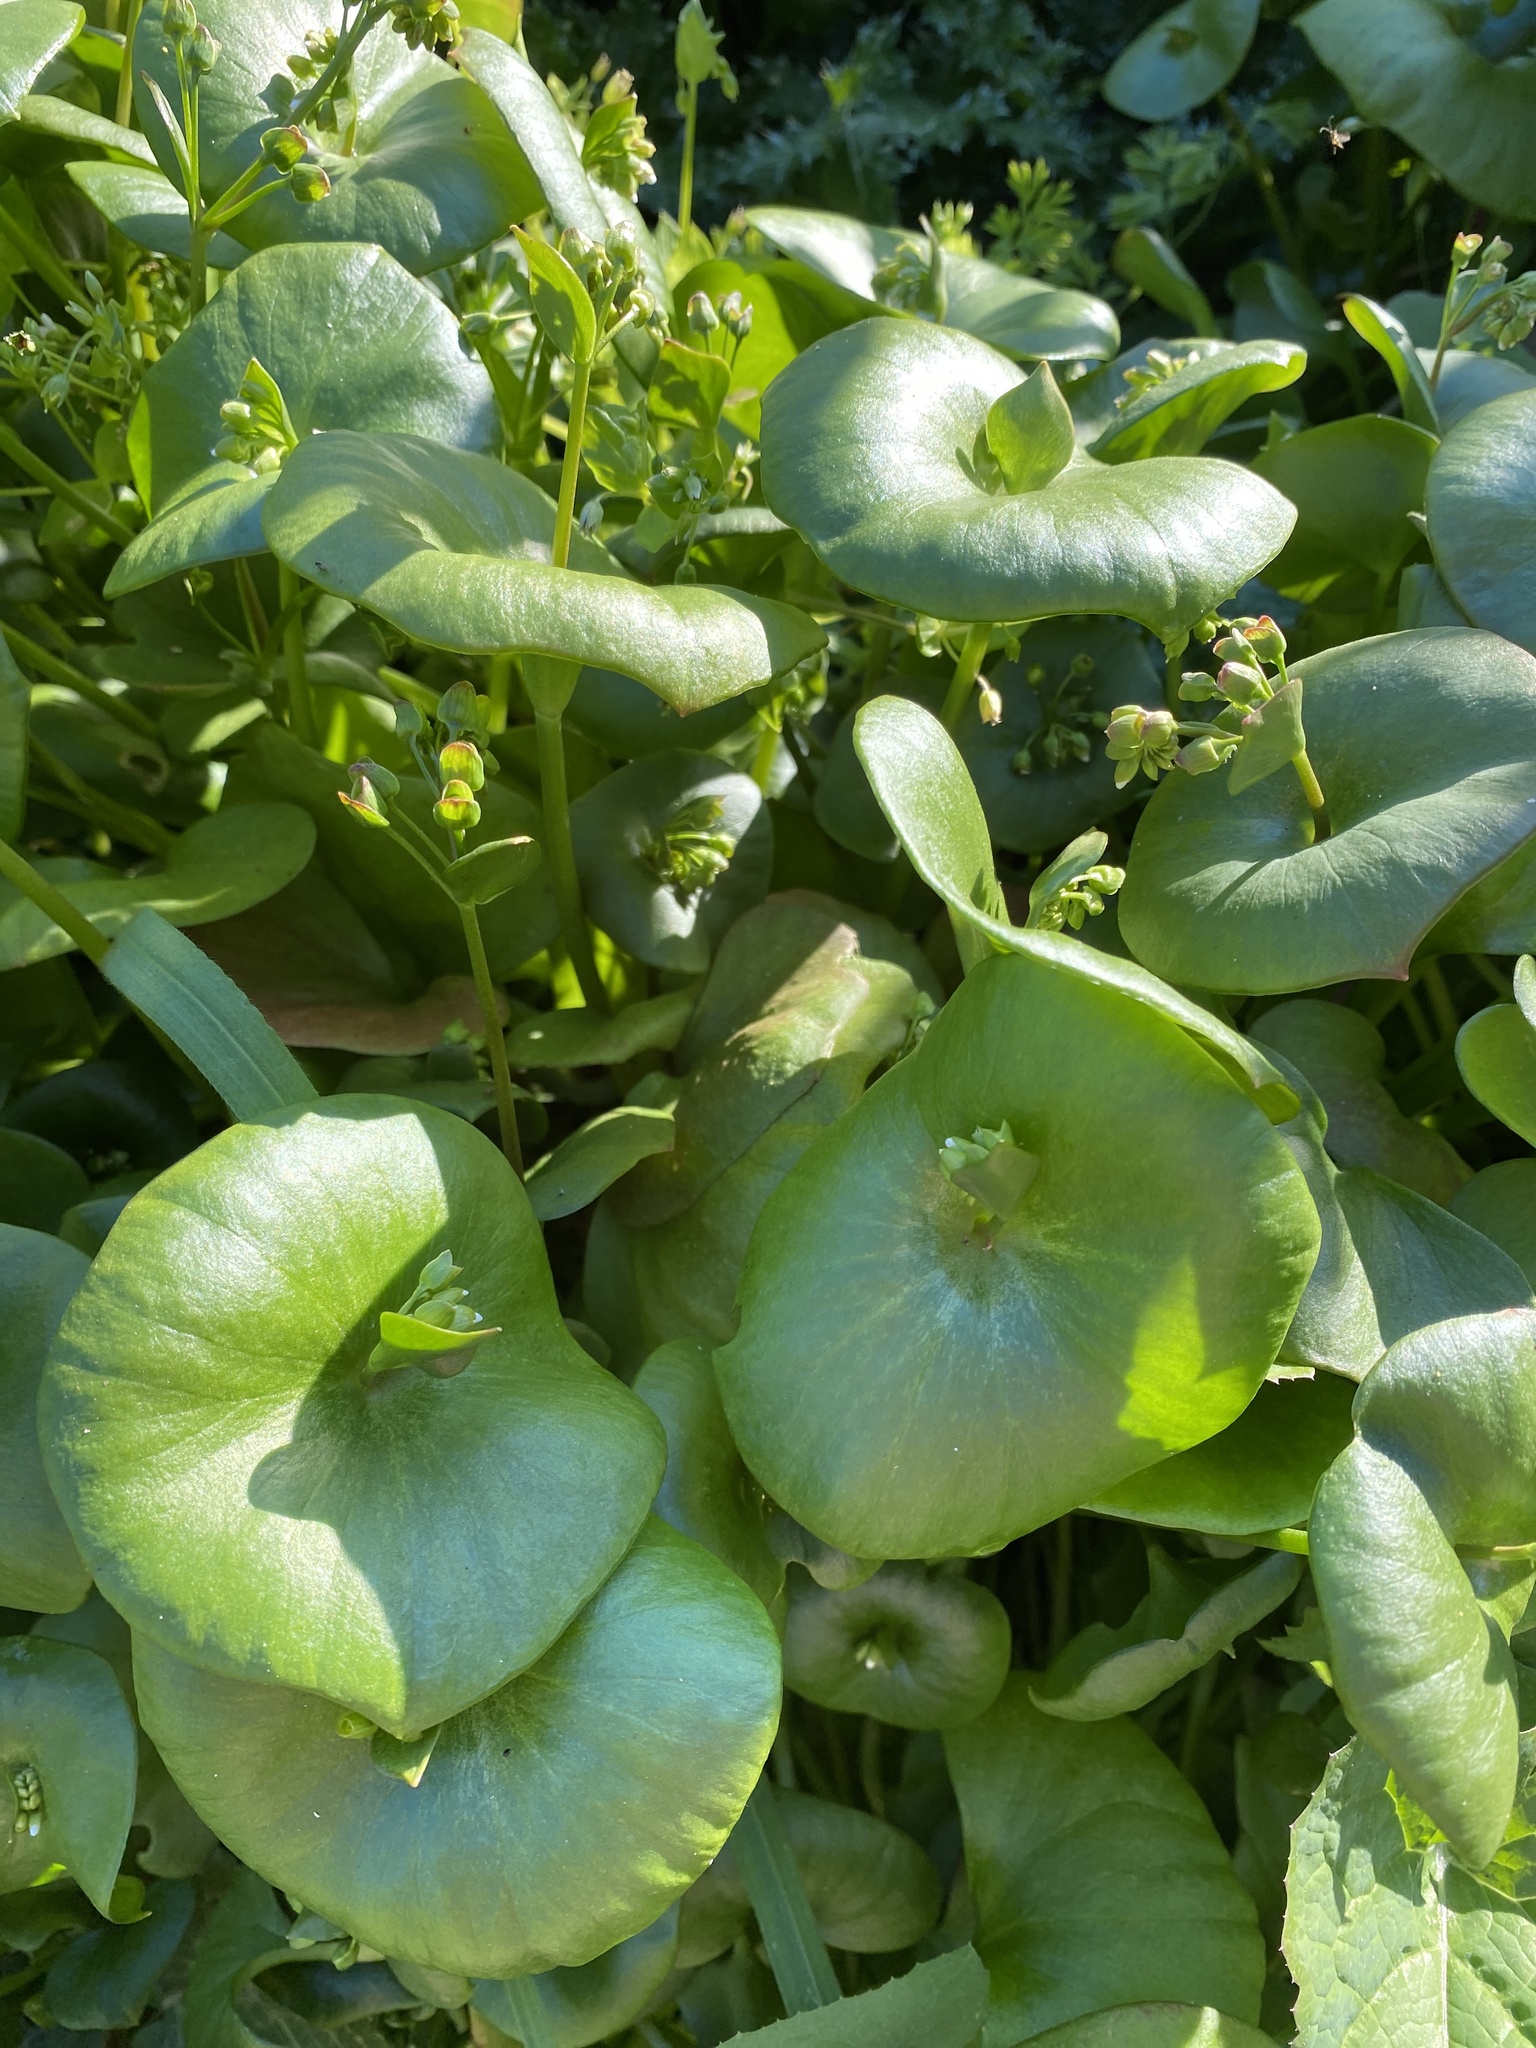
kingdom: Plantae
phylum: Tracheophyta
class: Magnoliopsida
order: Caryophyllales
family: Montiaceae
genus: Claytonia
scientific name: Claytonia perfoliata
